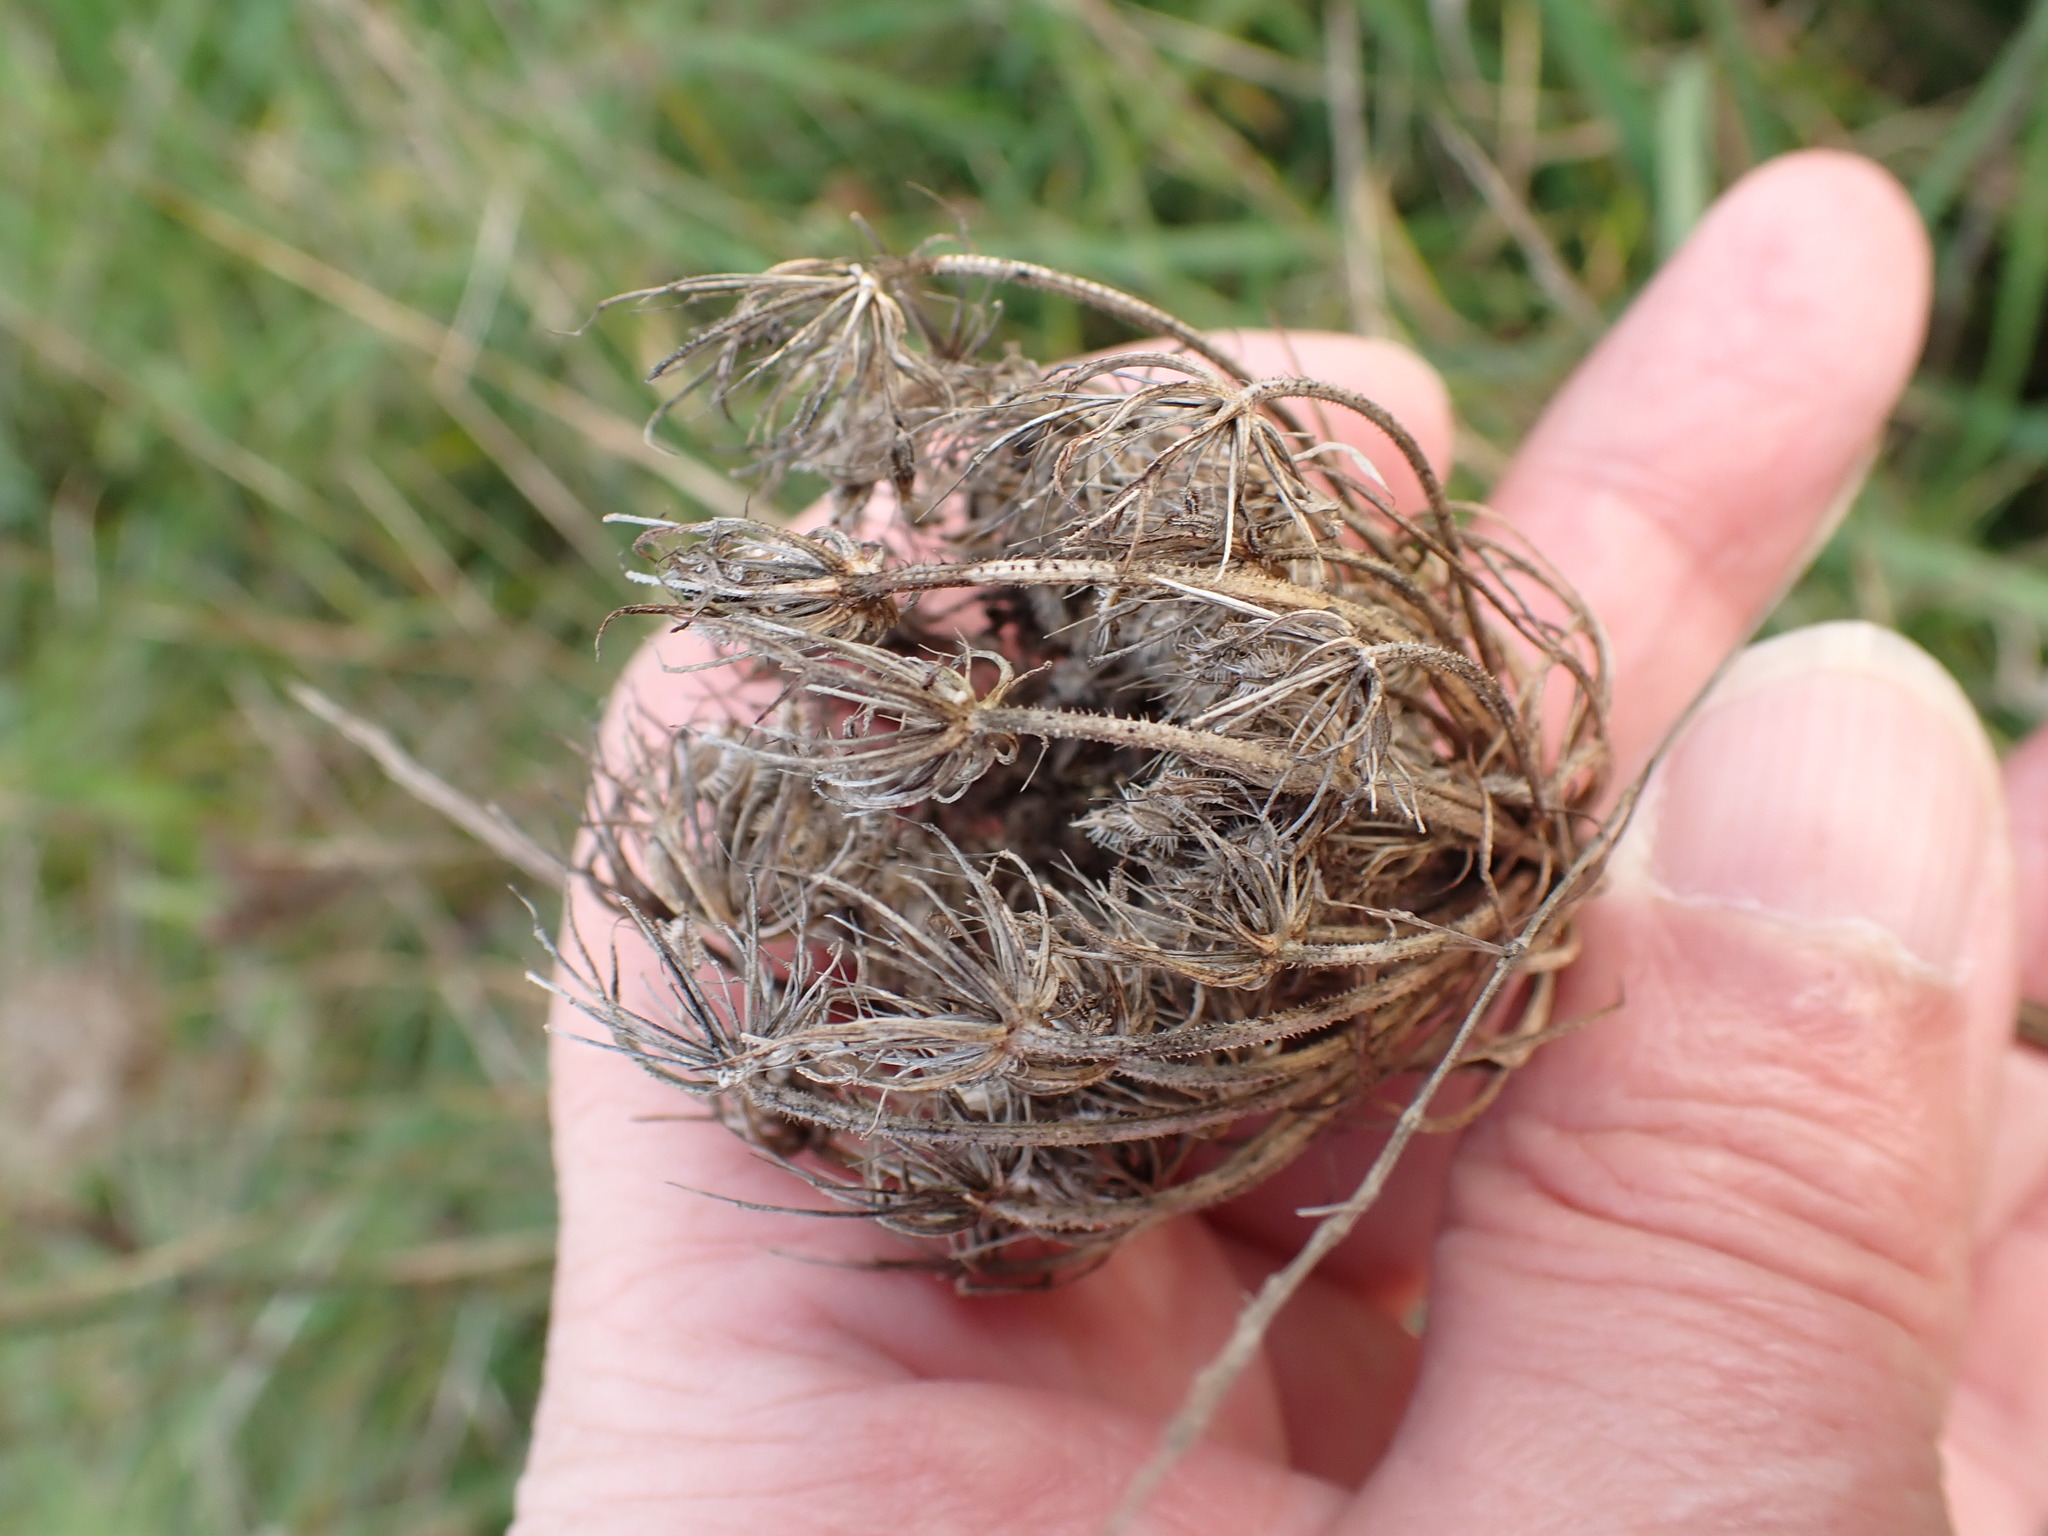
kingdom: Plantae
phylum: Tracheophyta
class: Magnoliopsida
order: Apiales
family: Apiaceae
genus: Daucus
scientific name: Daucus carota
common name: Wild carrot
